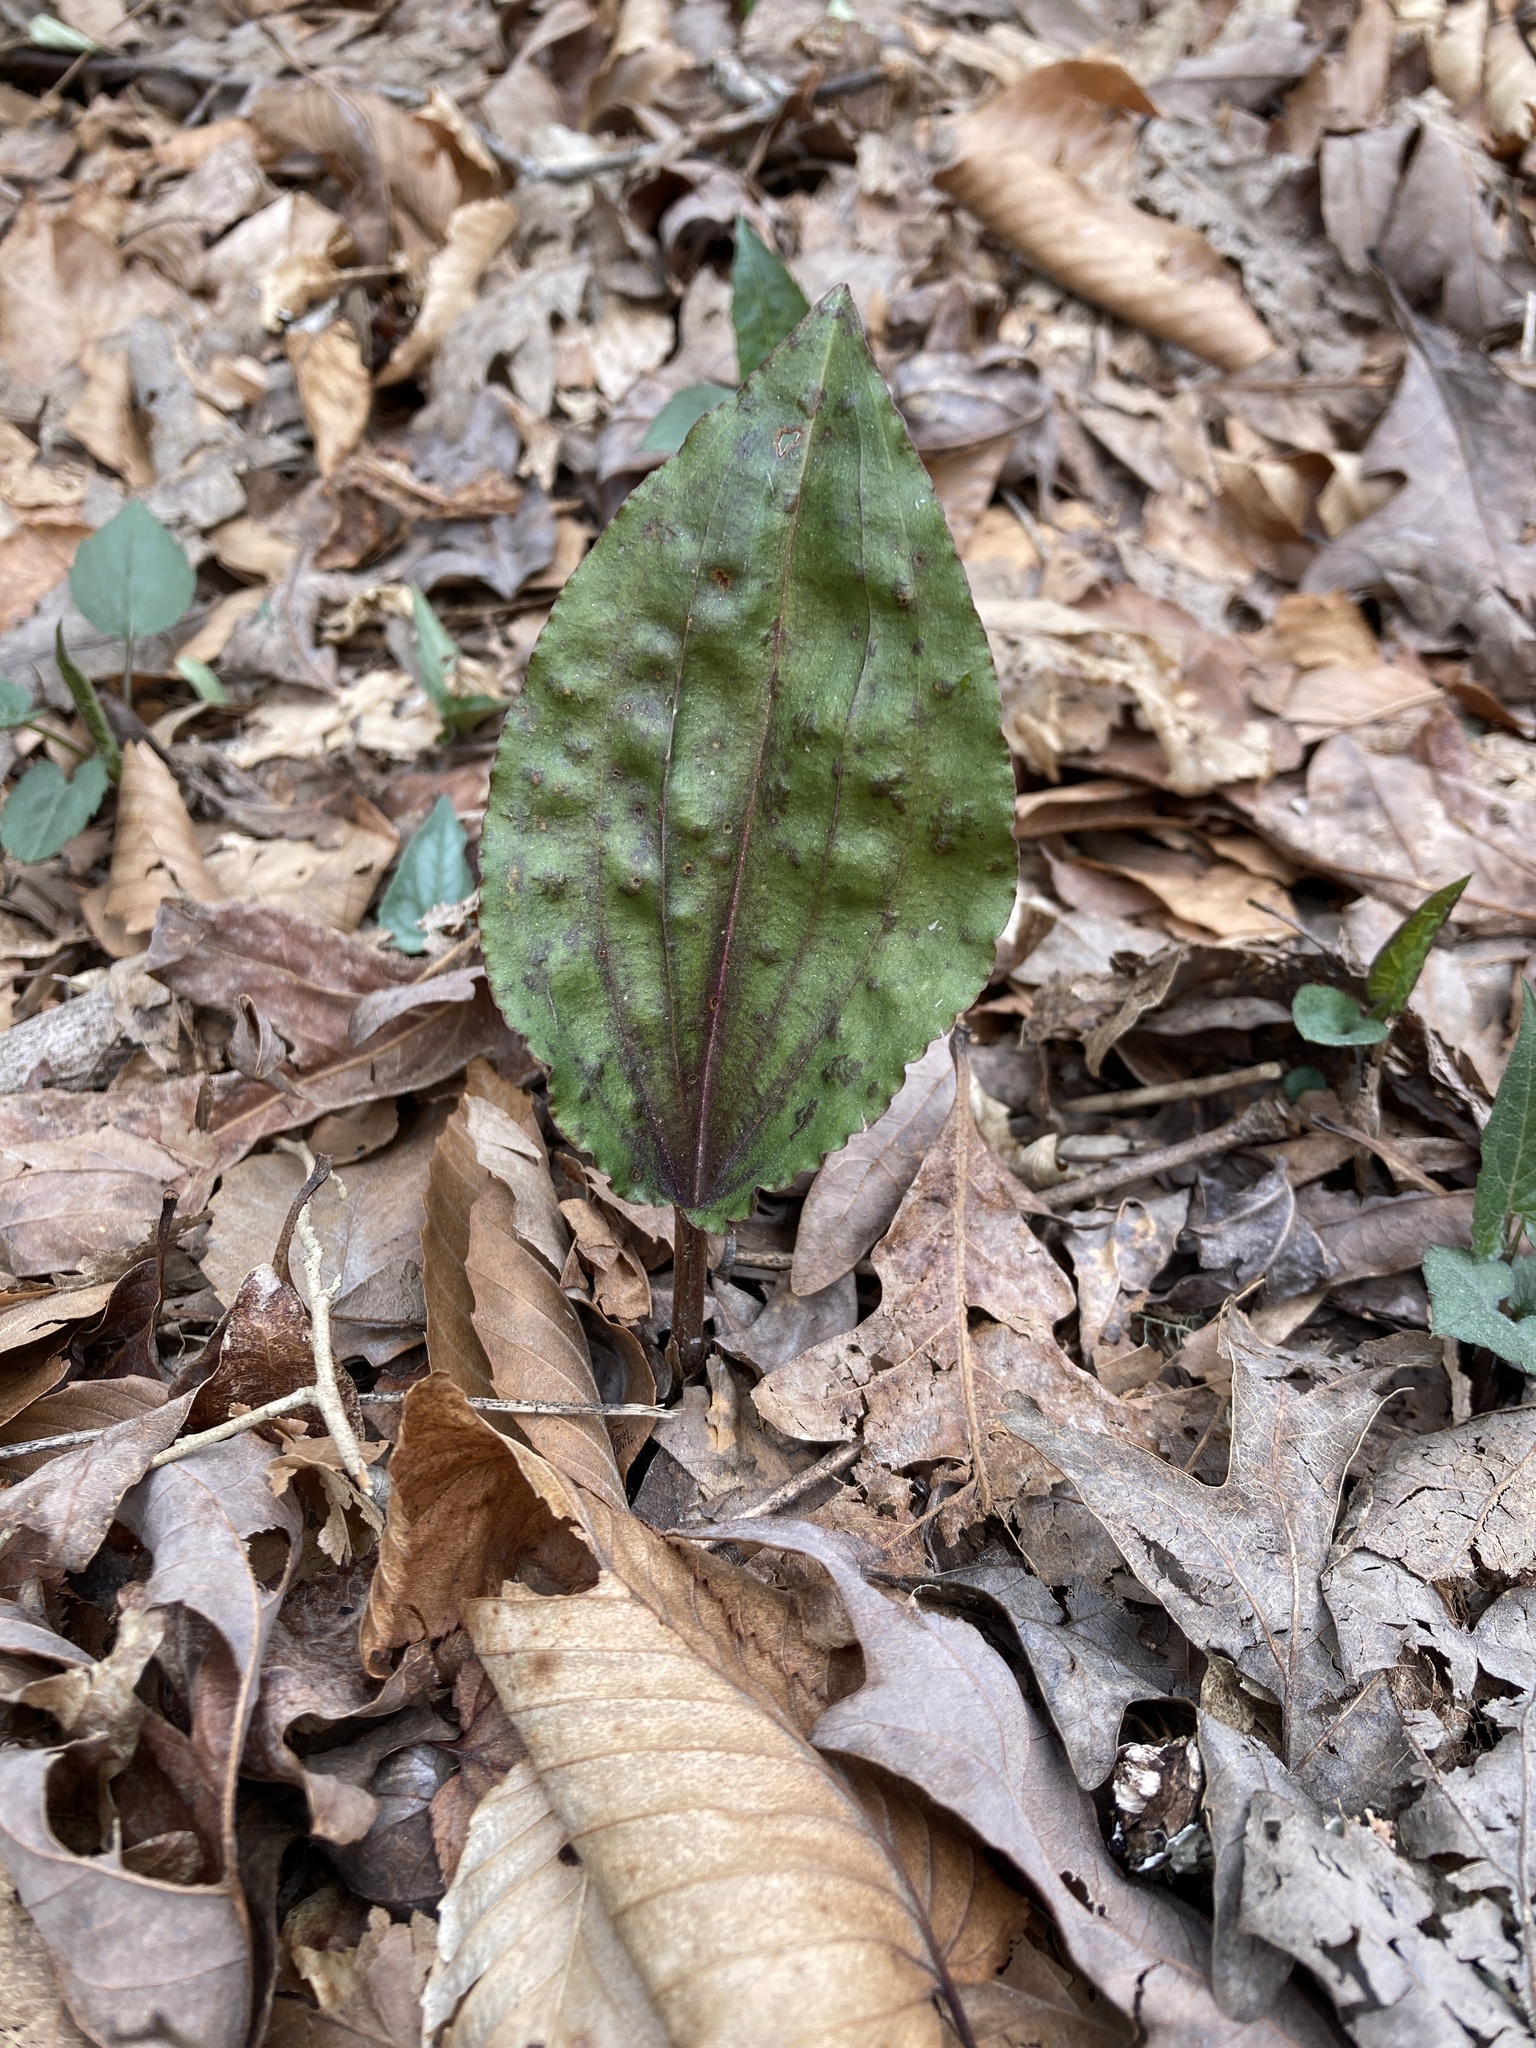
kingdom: Plantae
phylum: Tracheophyta
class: Liliopsida
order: Asparagales
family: Orchidaceae
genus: Tipularia
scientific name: Tipularia discolor
